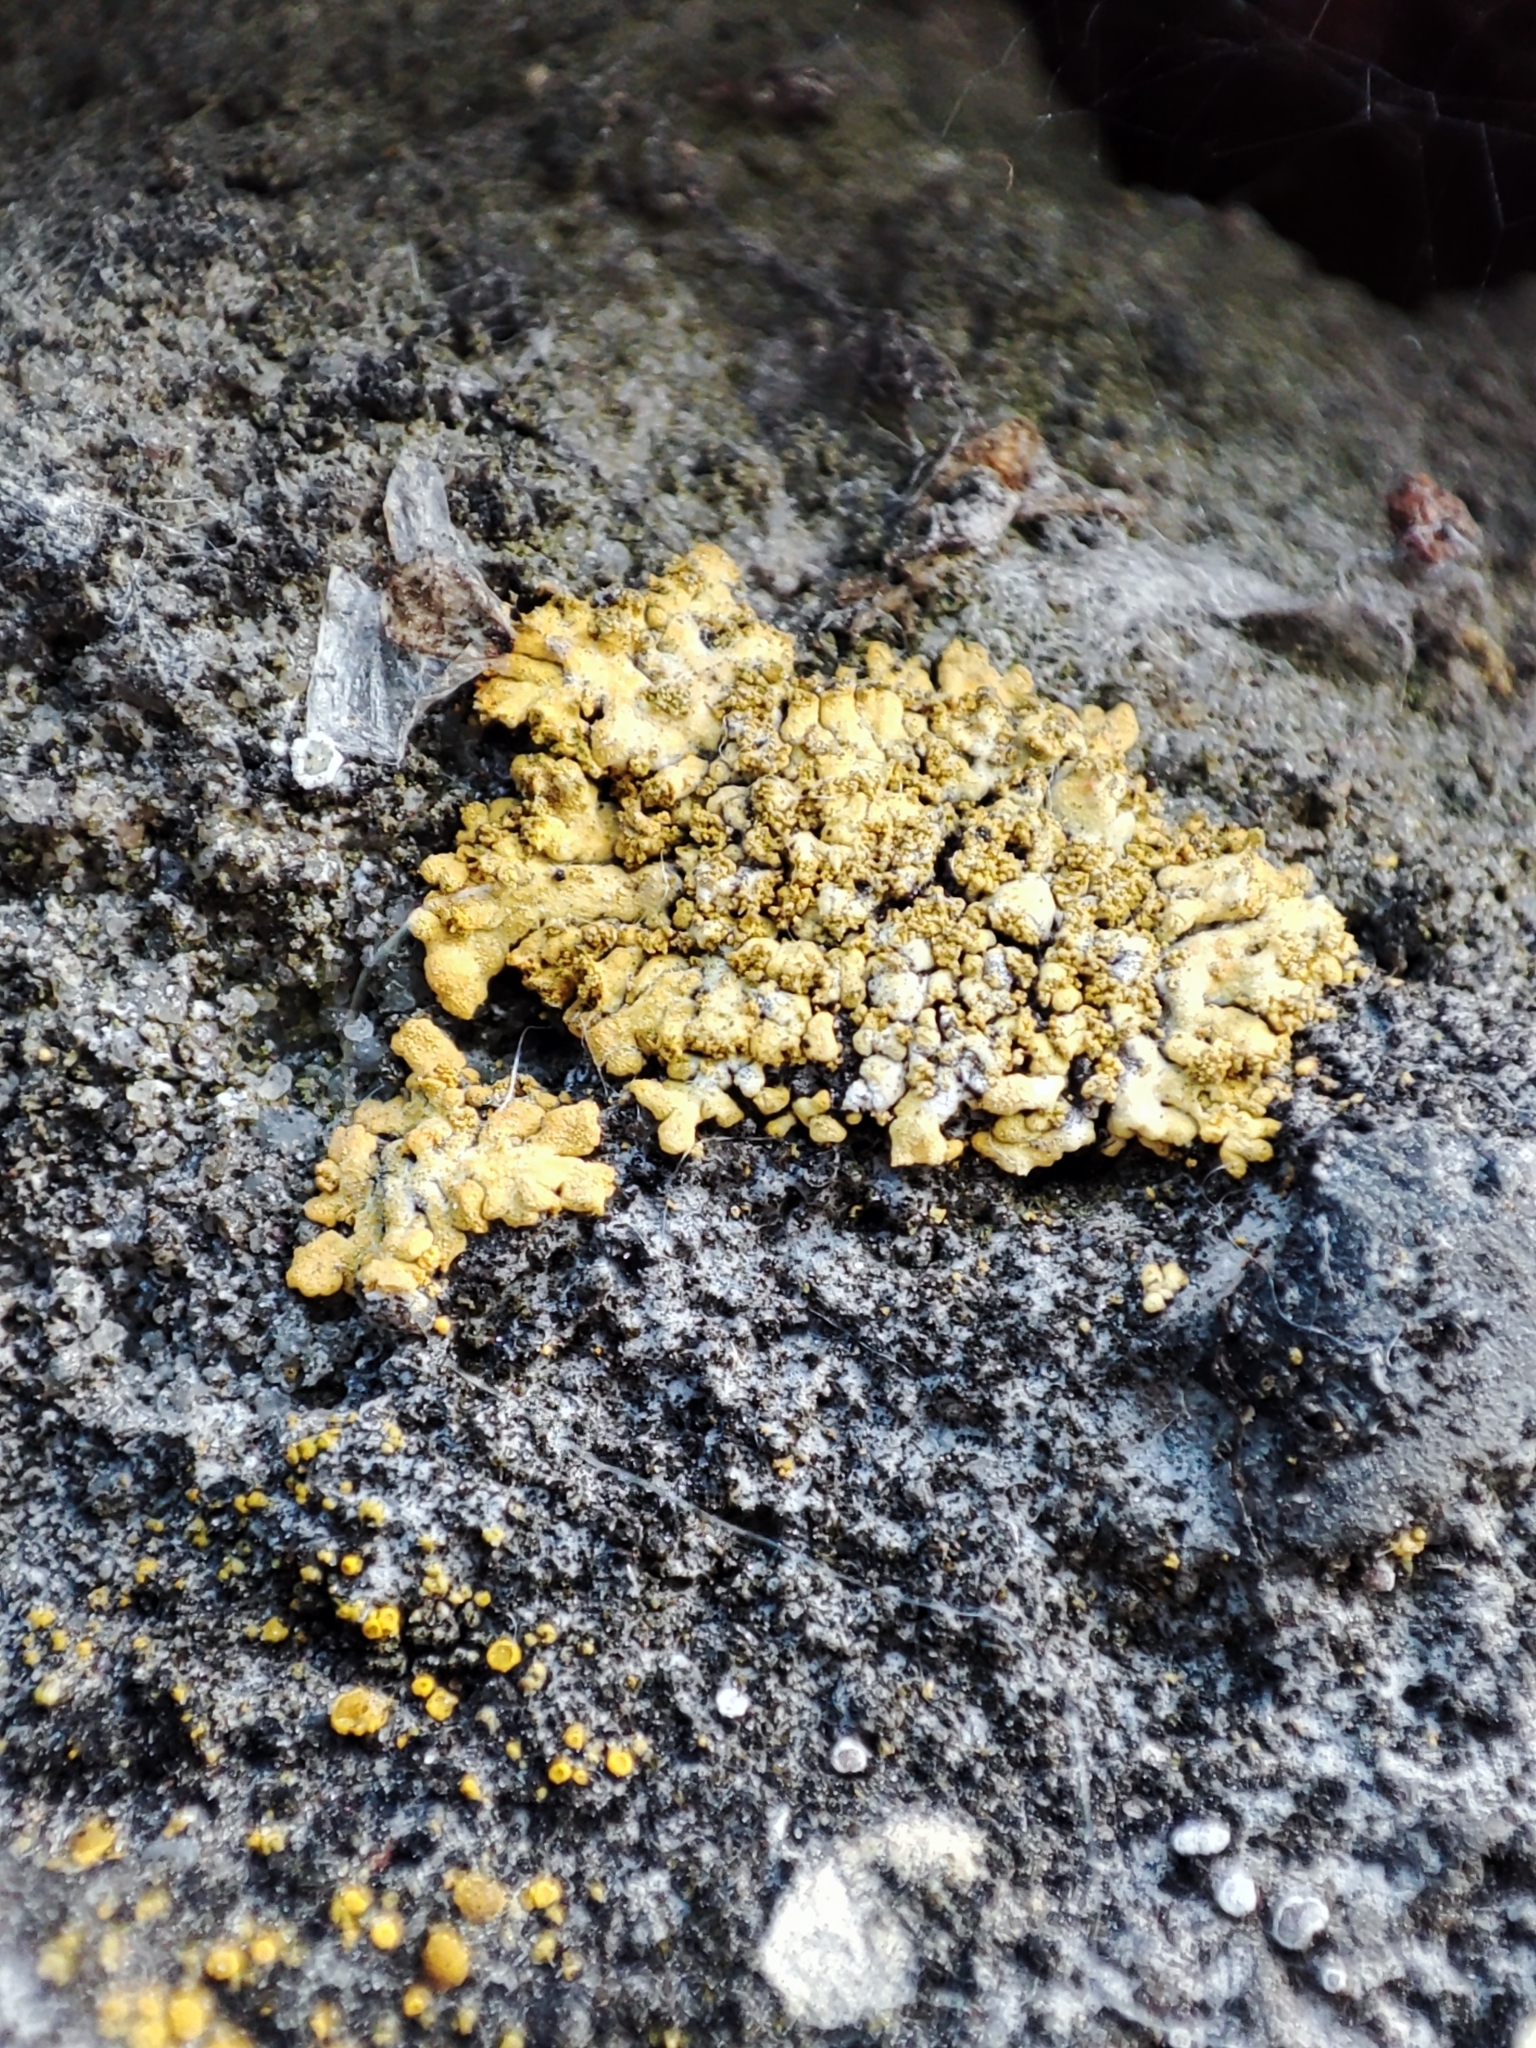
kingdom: Fungi
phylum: Ascomycota
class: Lecanoromycetes
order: Teloschistales
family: Teloschistaceae
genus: Calogaya
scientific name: Calogaya decipiens
